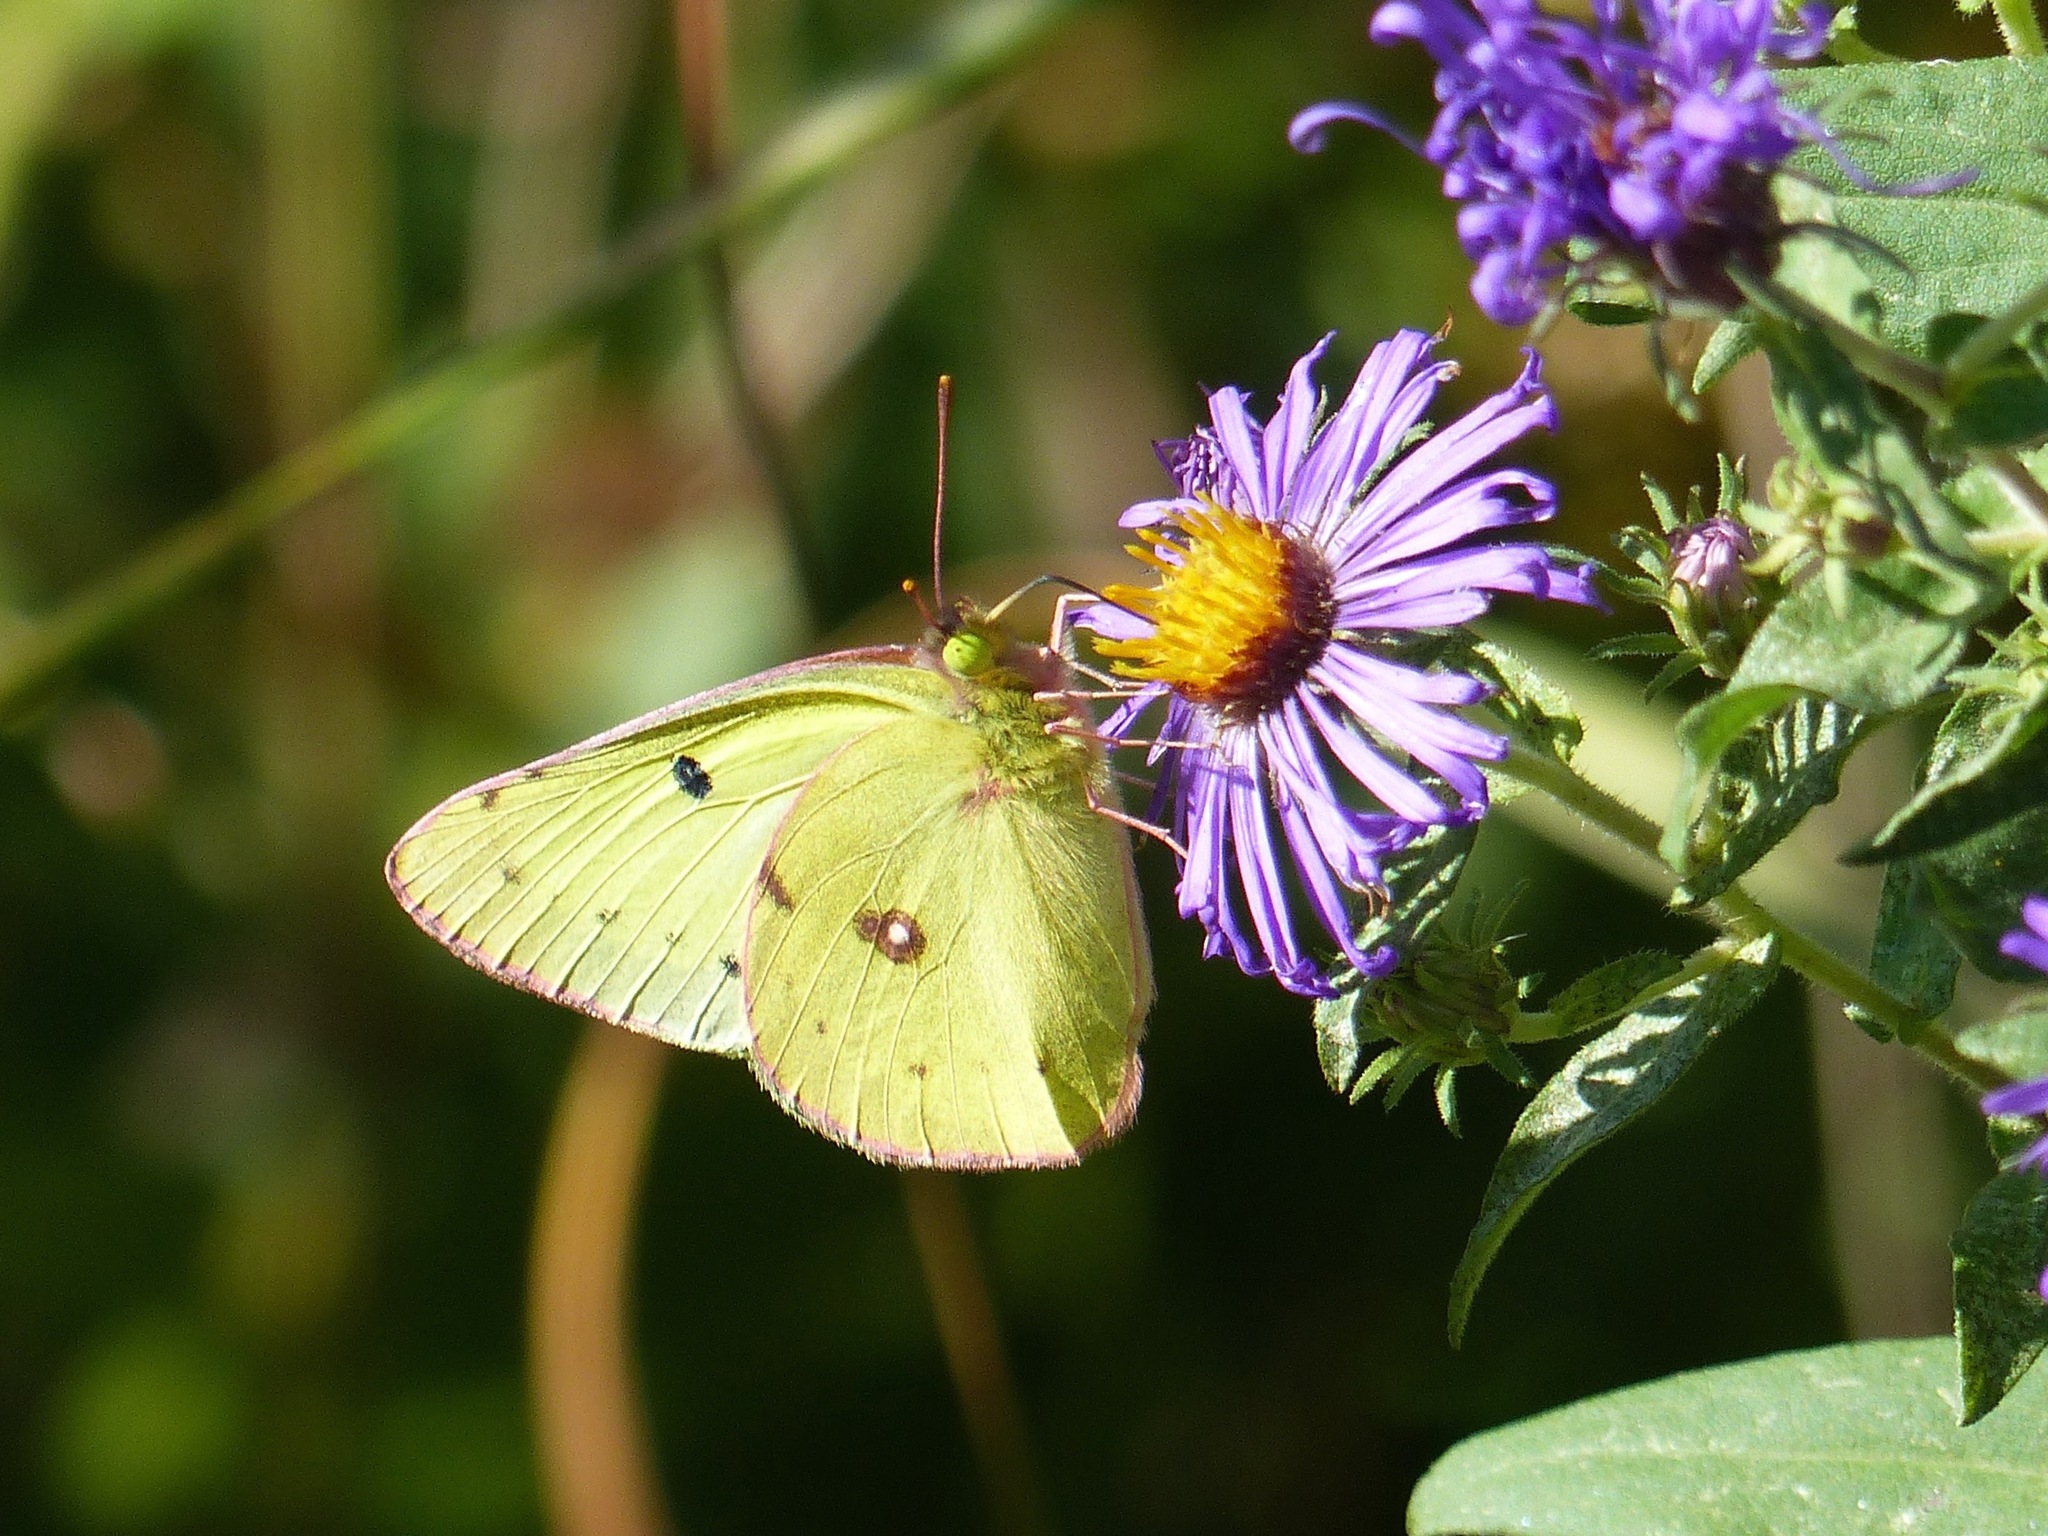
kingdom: Animalia
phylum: Arthropoda
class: Insecta
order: Lepidoptera
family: Pieridae
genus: Colias
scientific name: Colias philodice
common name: Clouded sulphur
